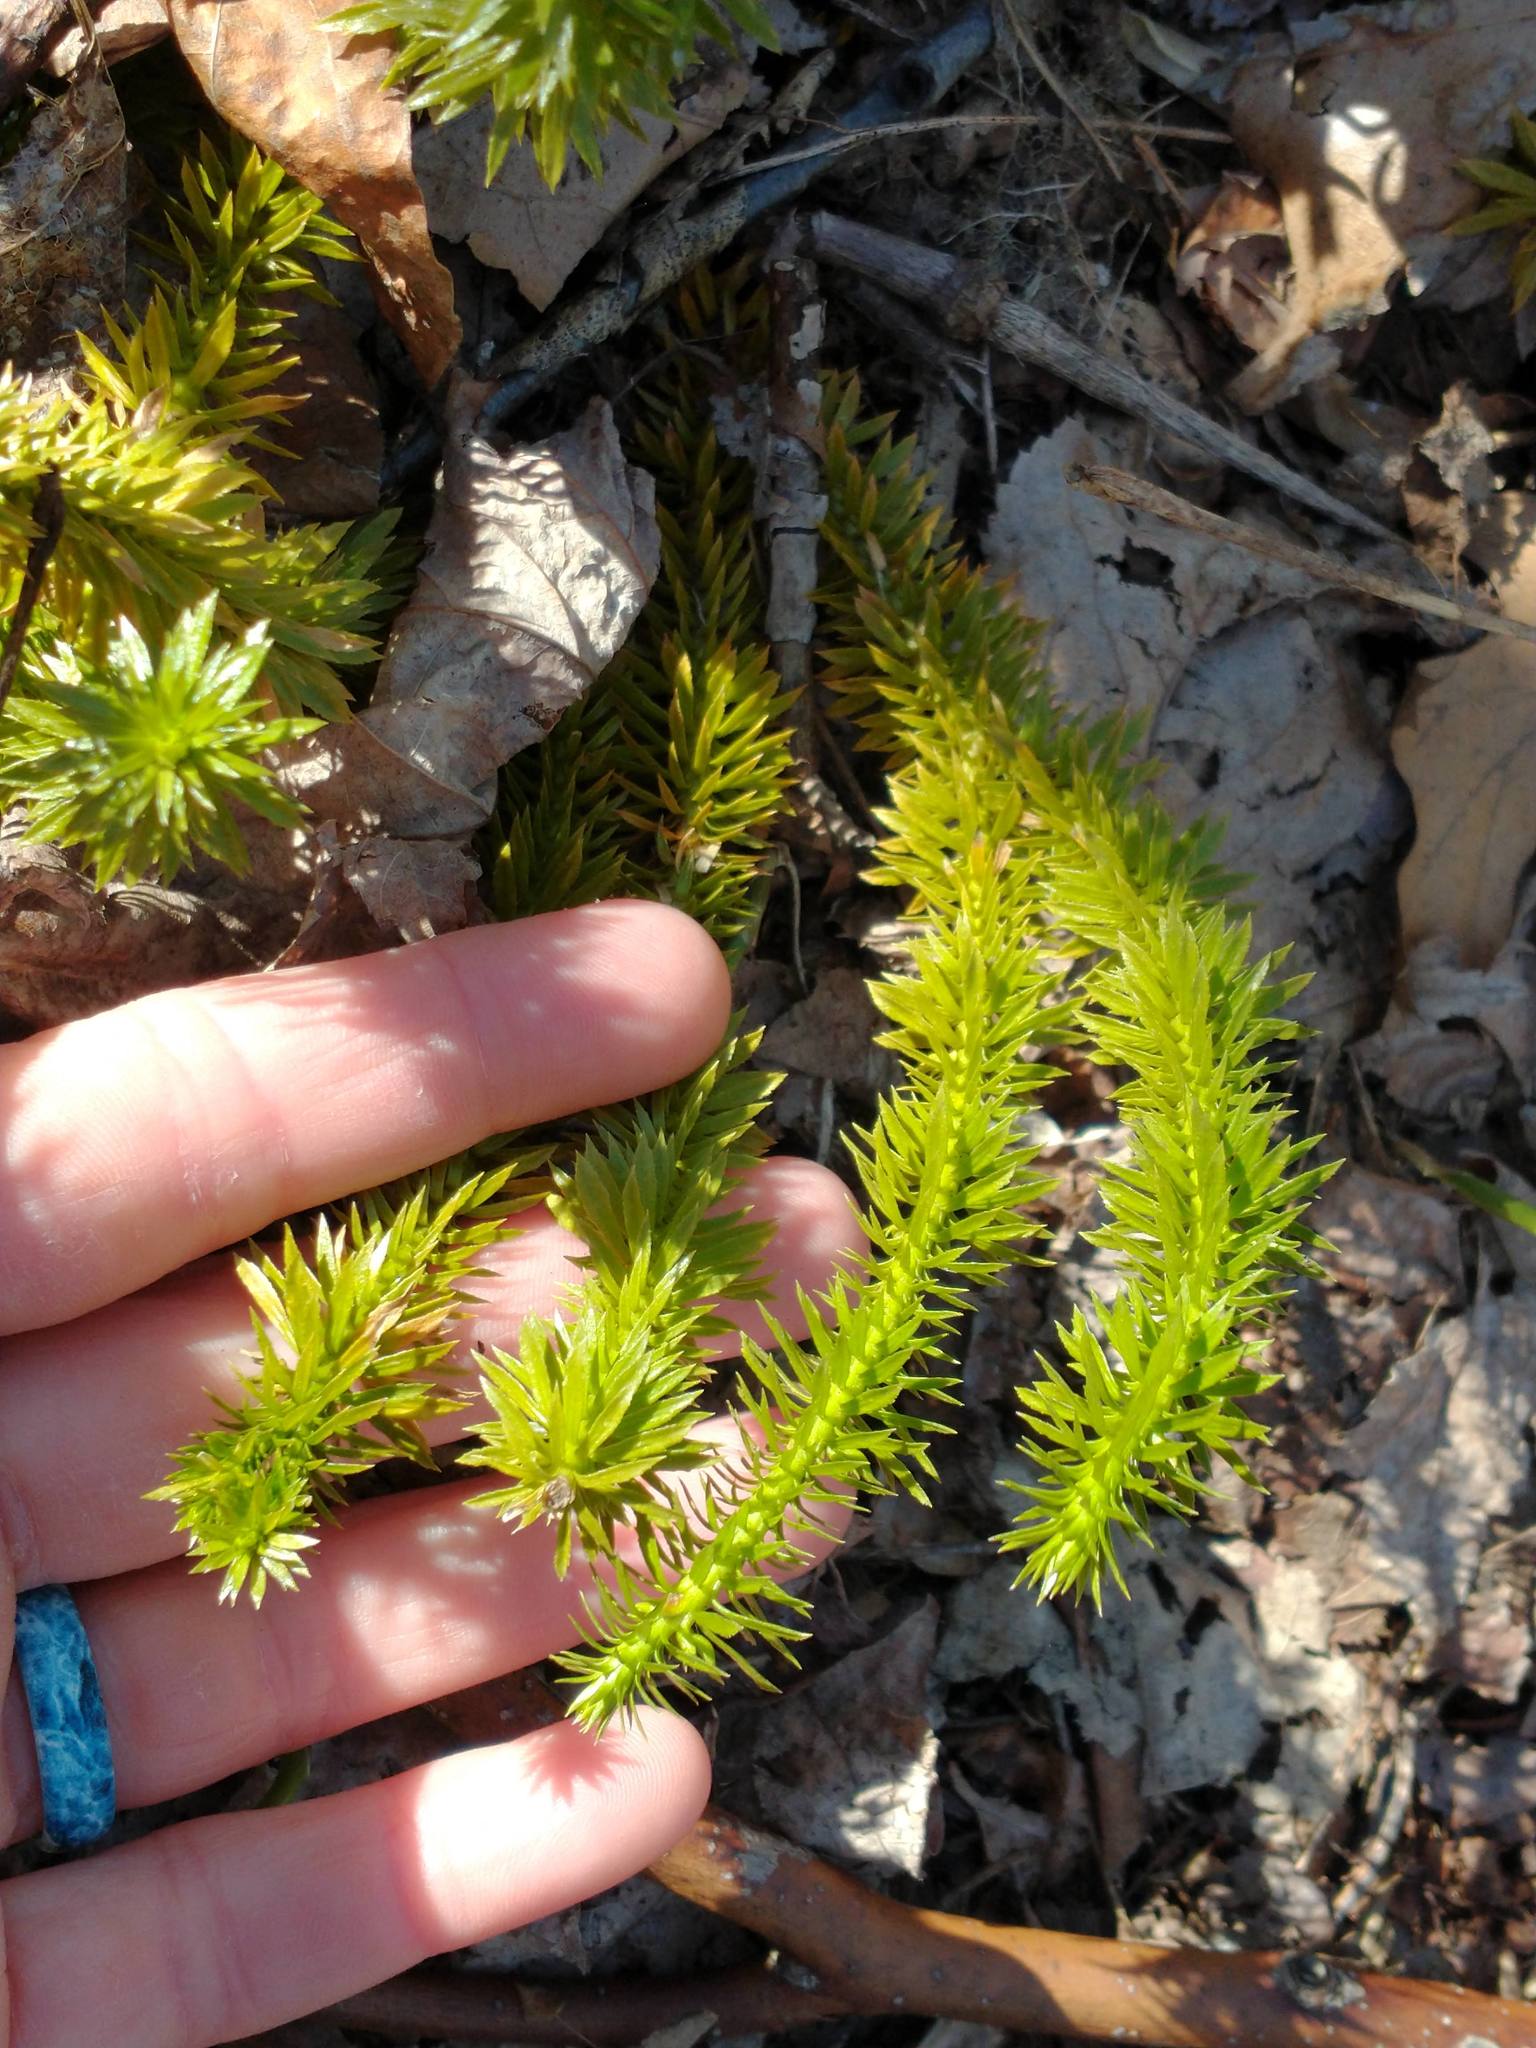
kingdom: Plantae
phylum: Tracheophyta
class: Lycopodiopsida
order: Lycopodiales
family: Lycopodiaceae
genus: Huperzia
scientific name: Huperzia lucidula
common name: Shining clubmoss
